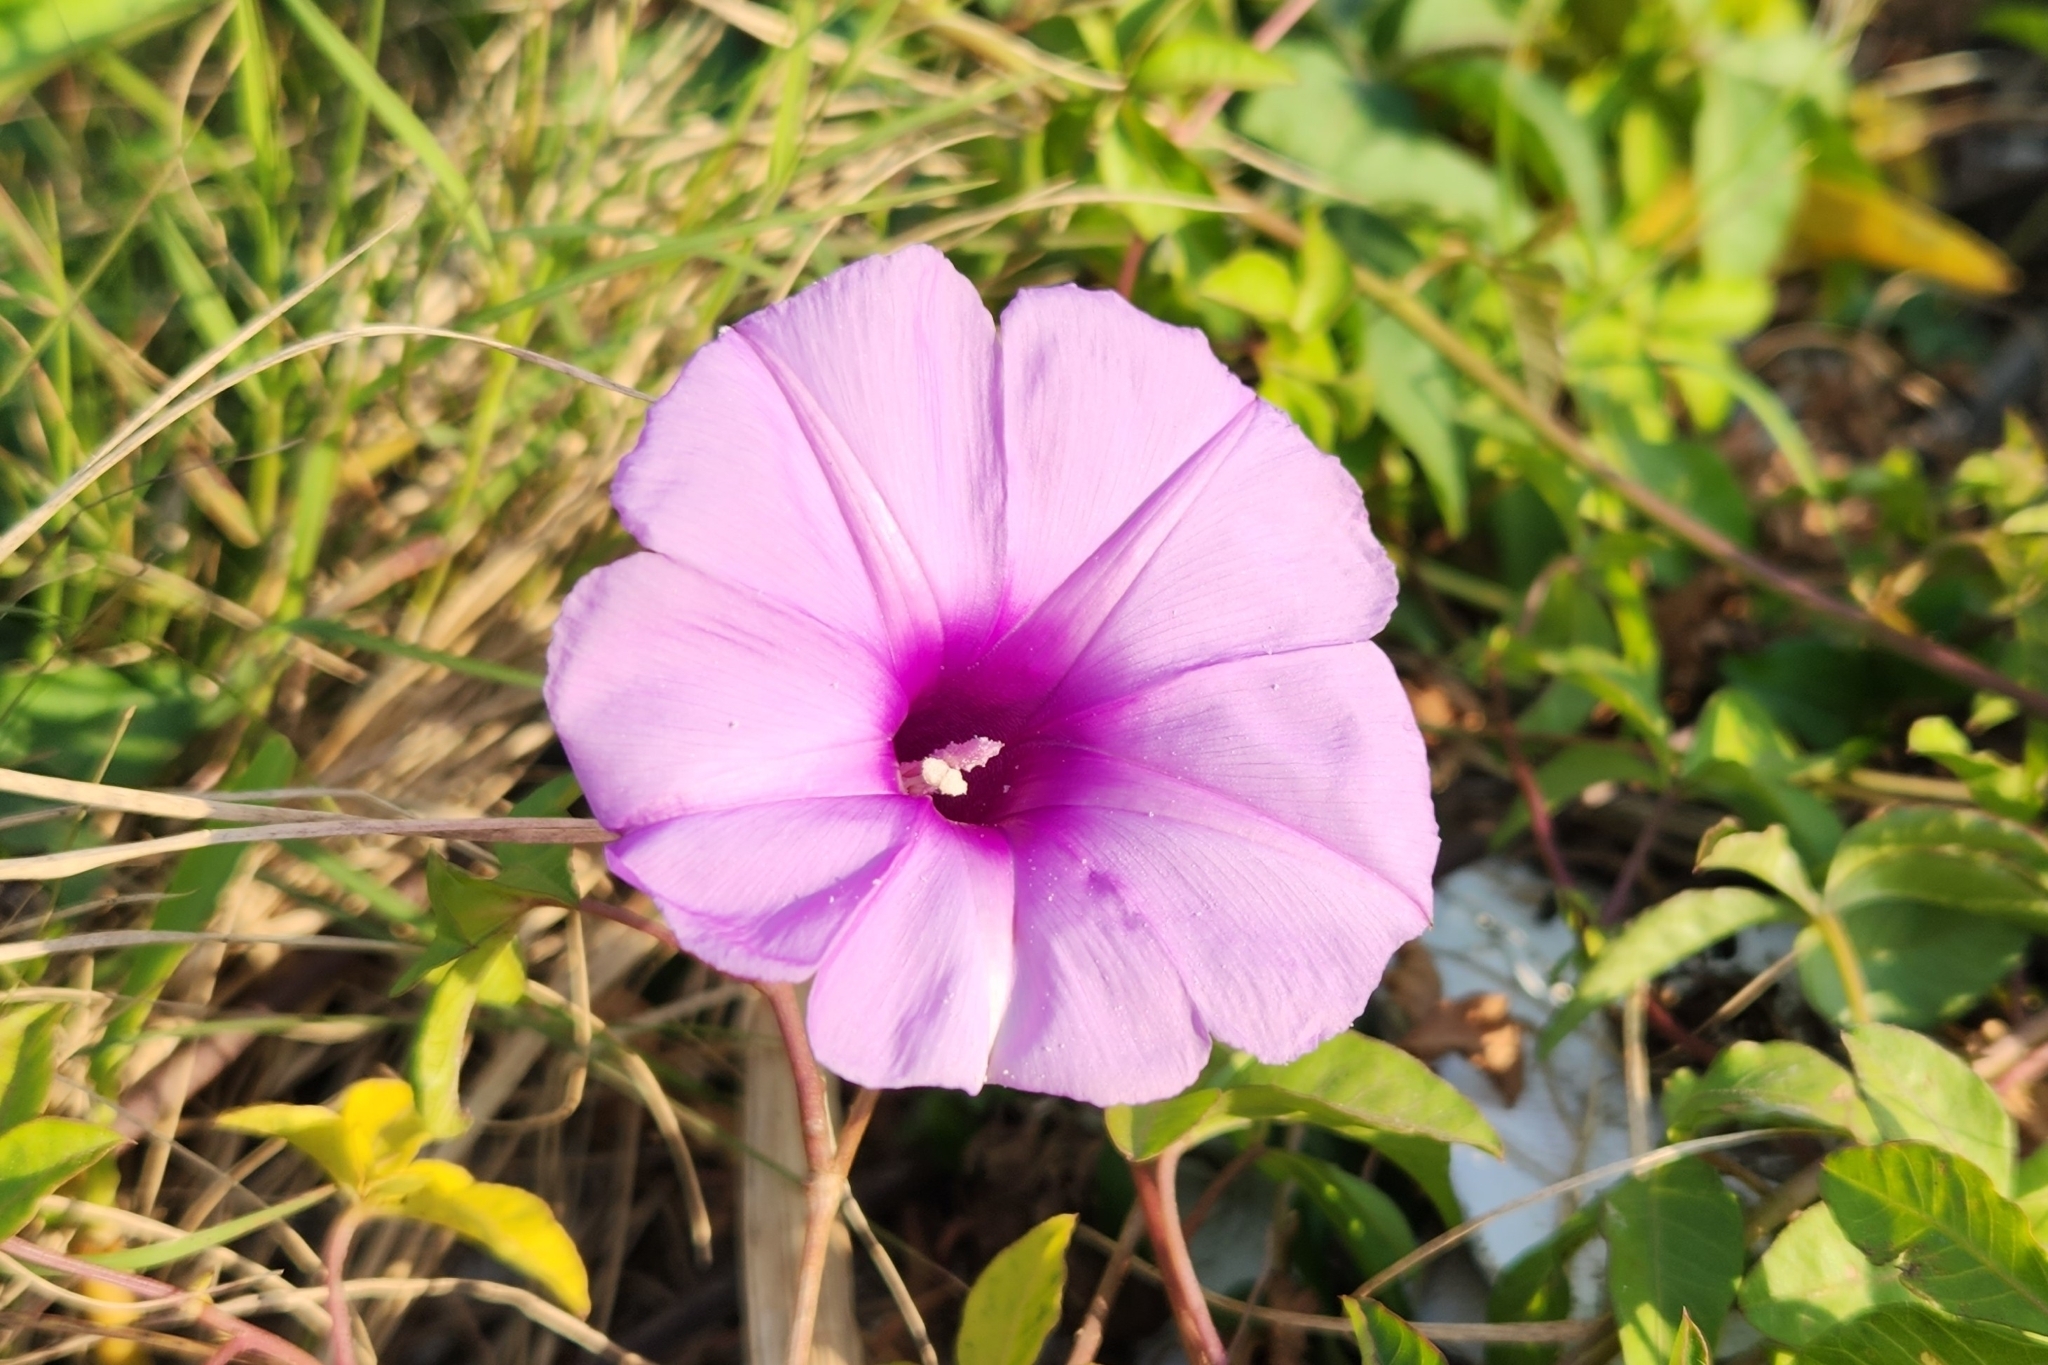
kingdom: Plantae
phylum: Tracheophyta
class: Magnoliopsida
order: Solanales
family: Convolvulaceae
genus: Ipomoea
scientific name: Ipomoea cairica
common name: Mile a minute vine
